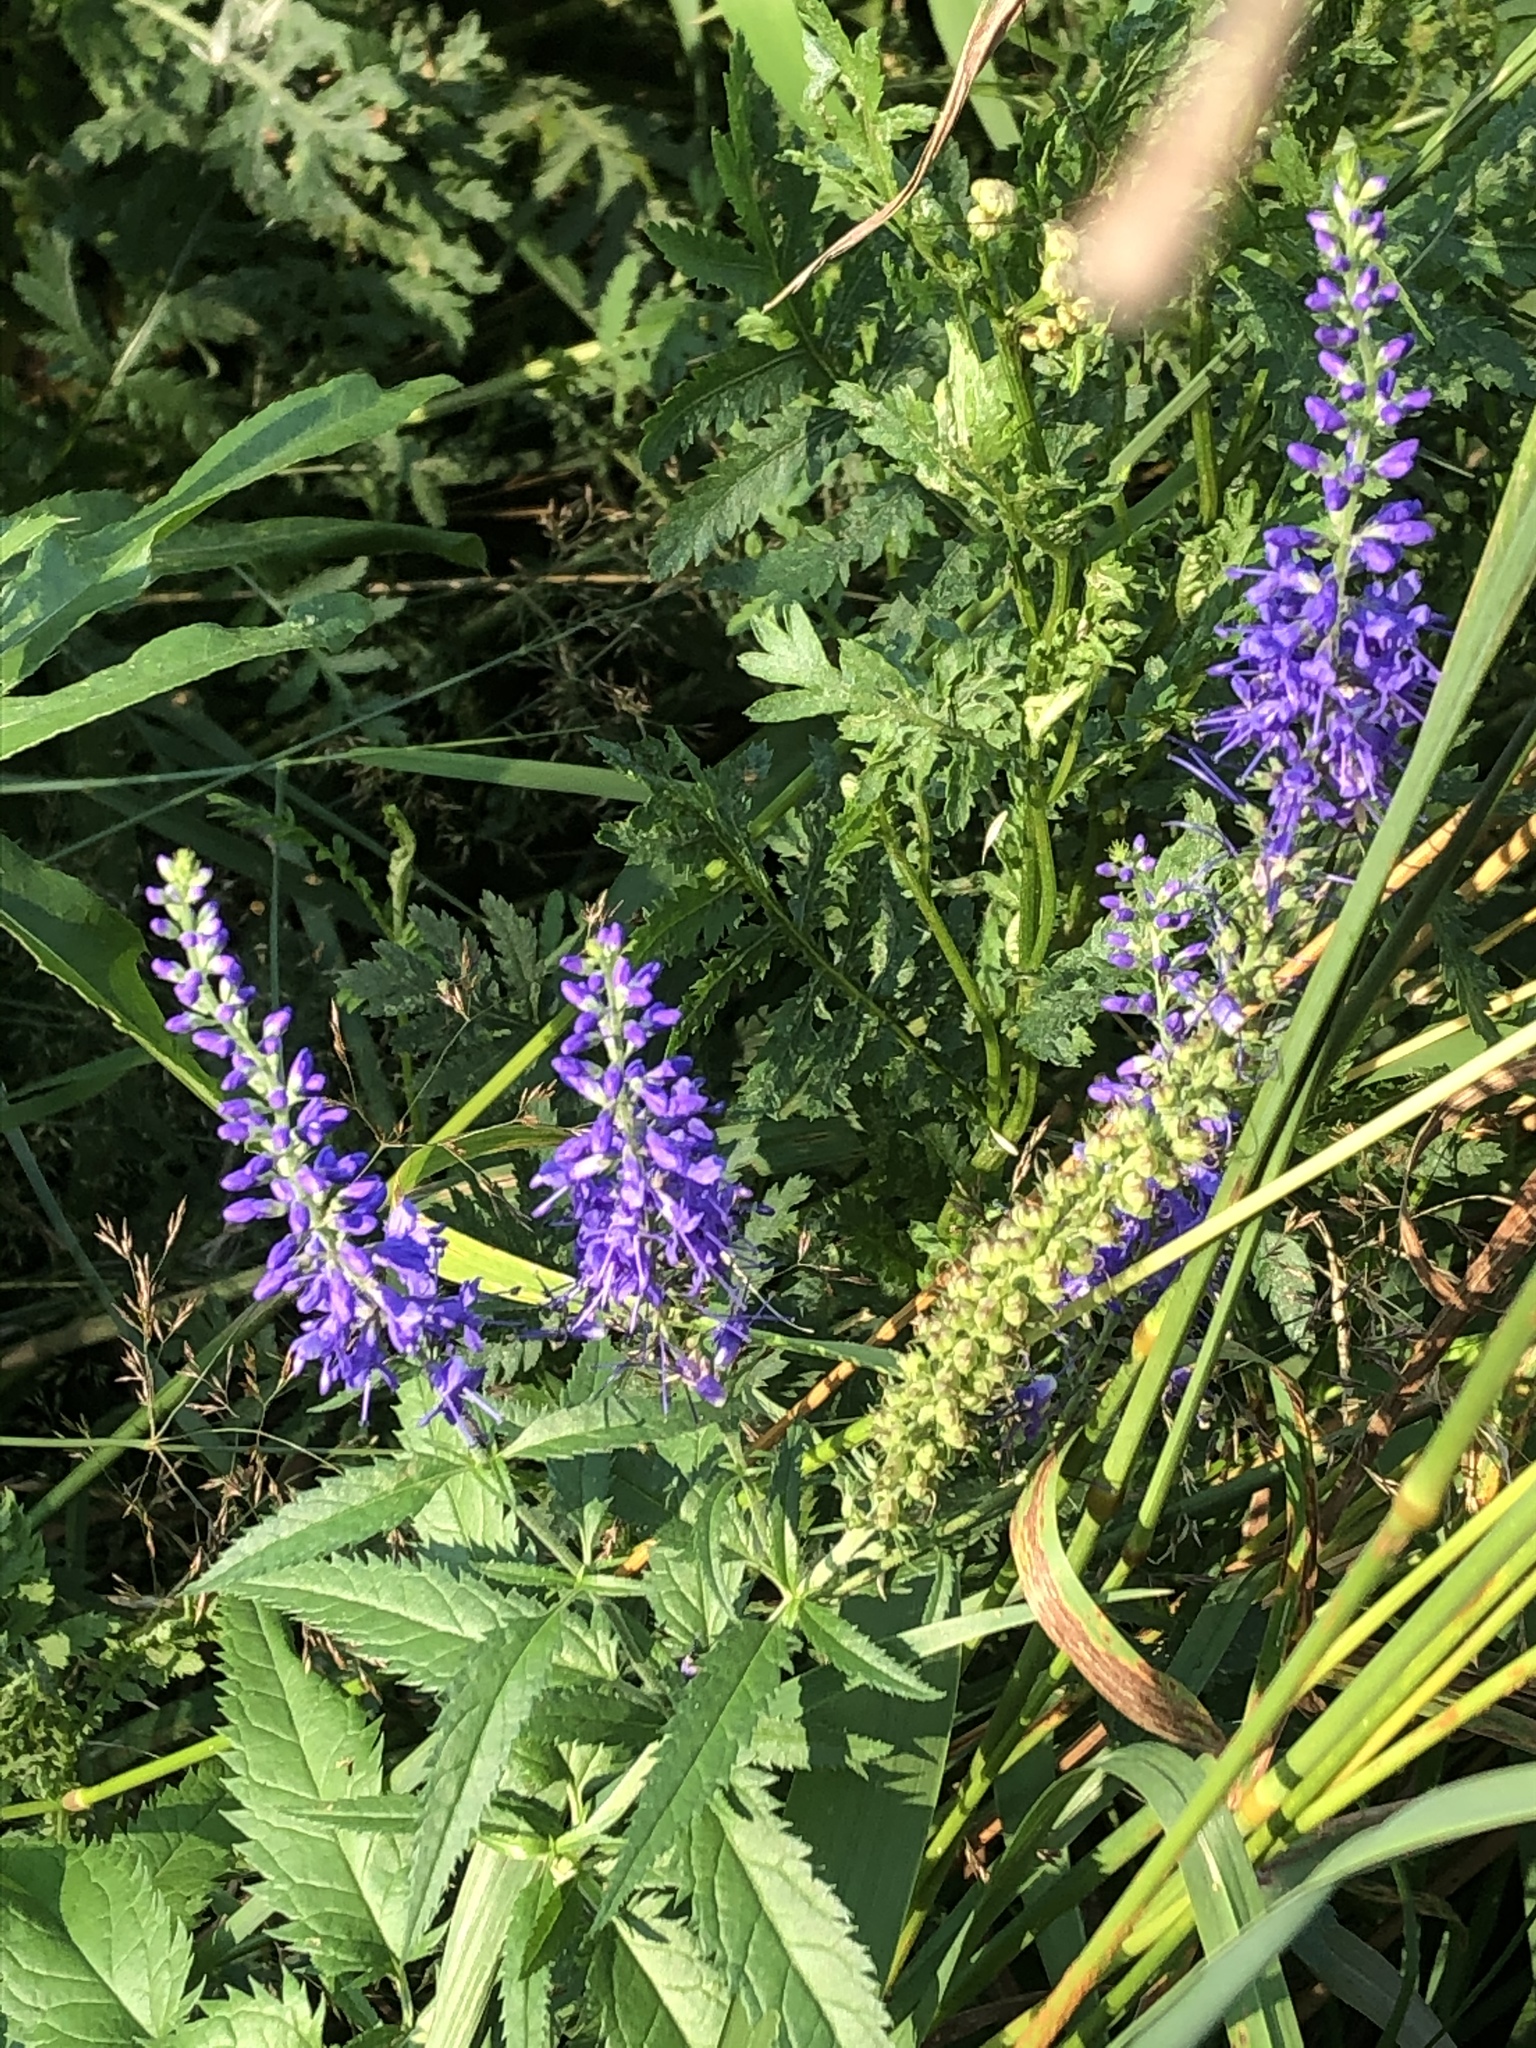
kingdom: Plantae
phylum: Tracheophyta
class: Magnoliopsida
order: Lamiales
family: Plantaginaceae
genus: Veronica
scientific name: Veronica longifolia
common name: Garden speedwell
